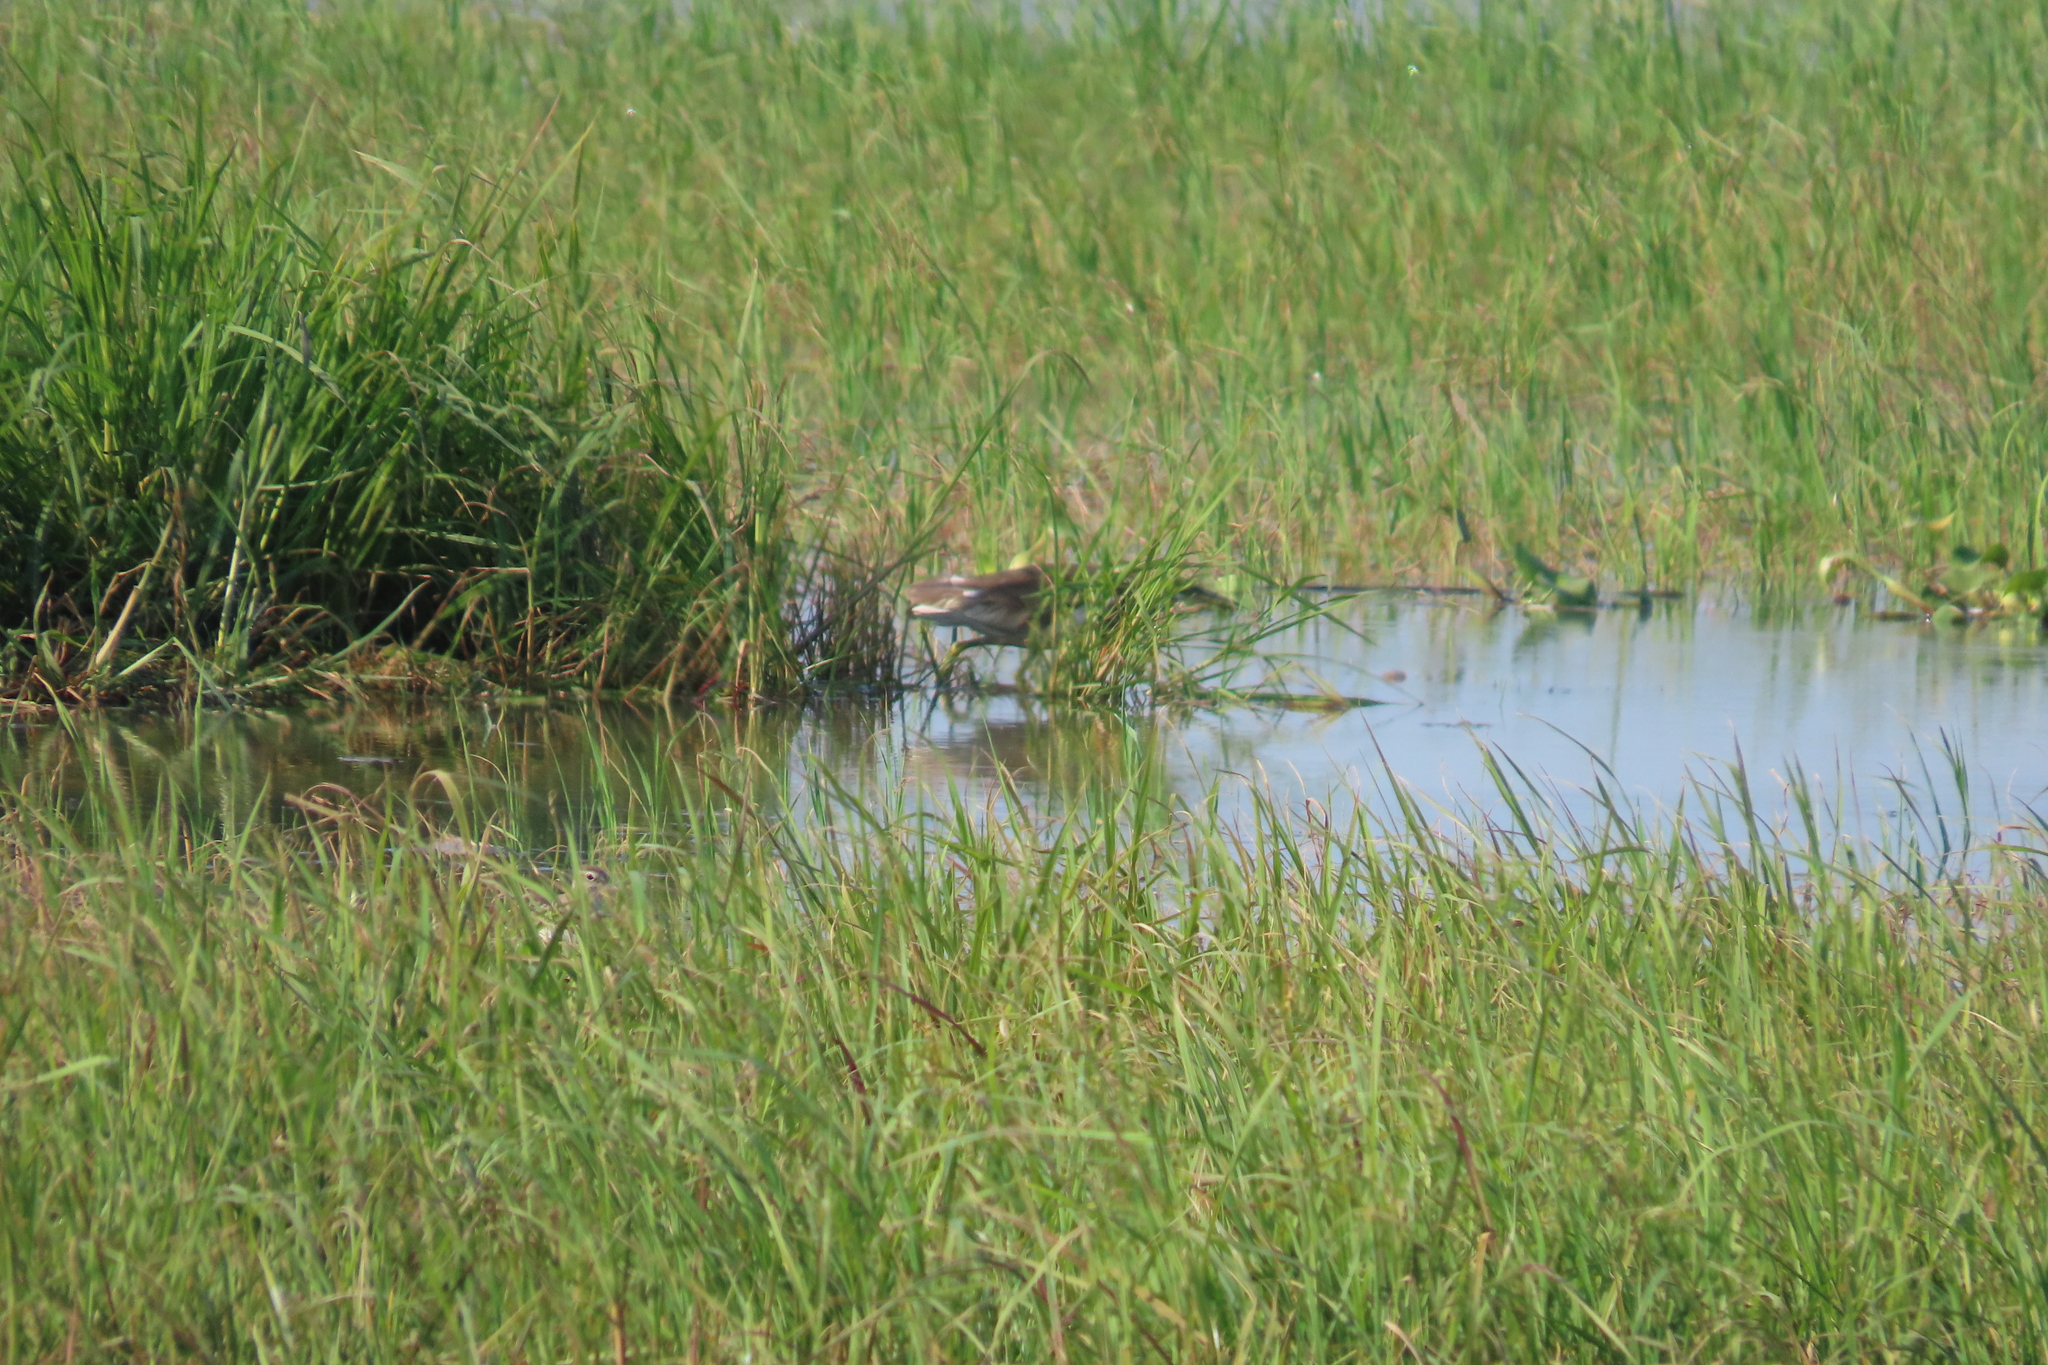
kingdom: Animalia
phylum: Chordata
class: Aves
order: Pelecaniformes
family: Ardeidae
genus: Ardeola
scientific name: Ardeola grayii
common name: Indian pond heron
